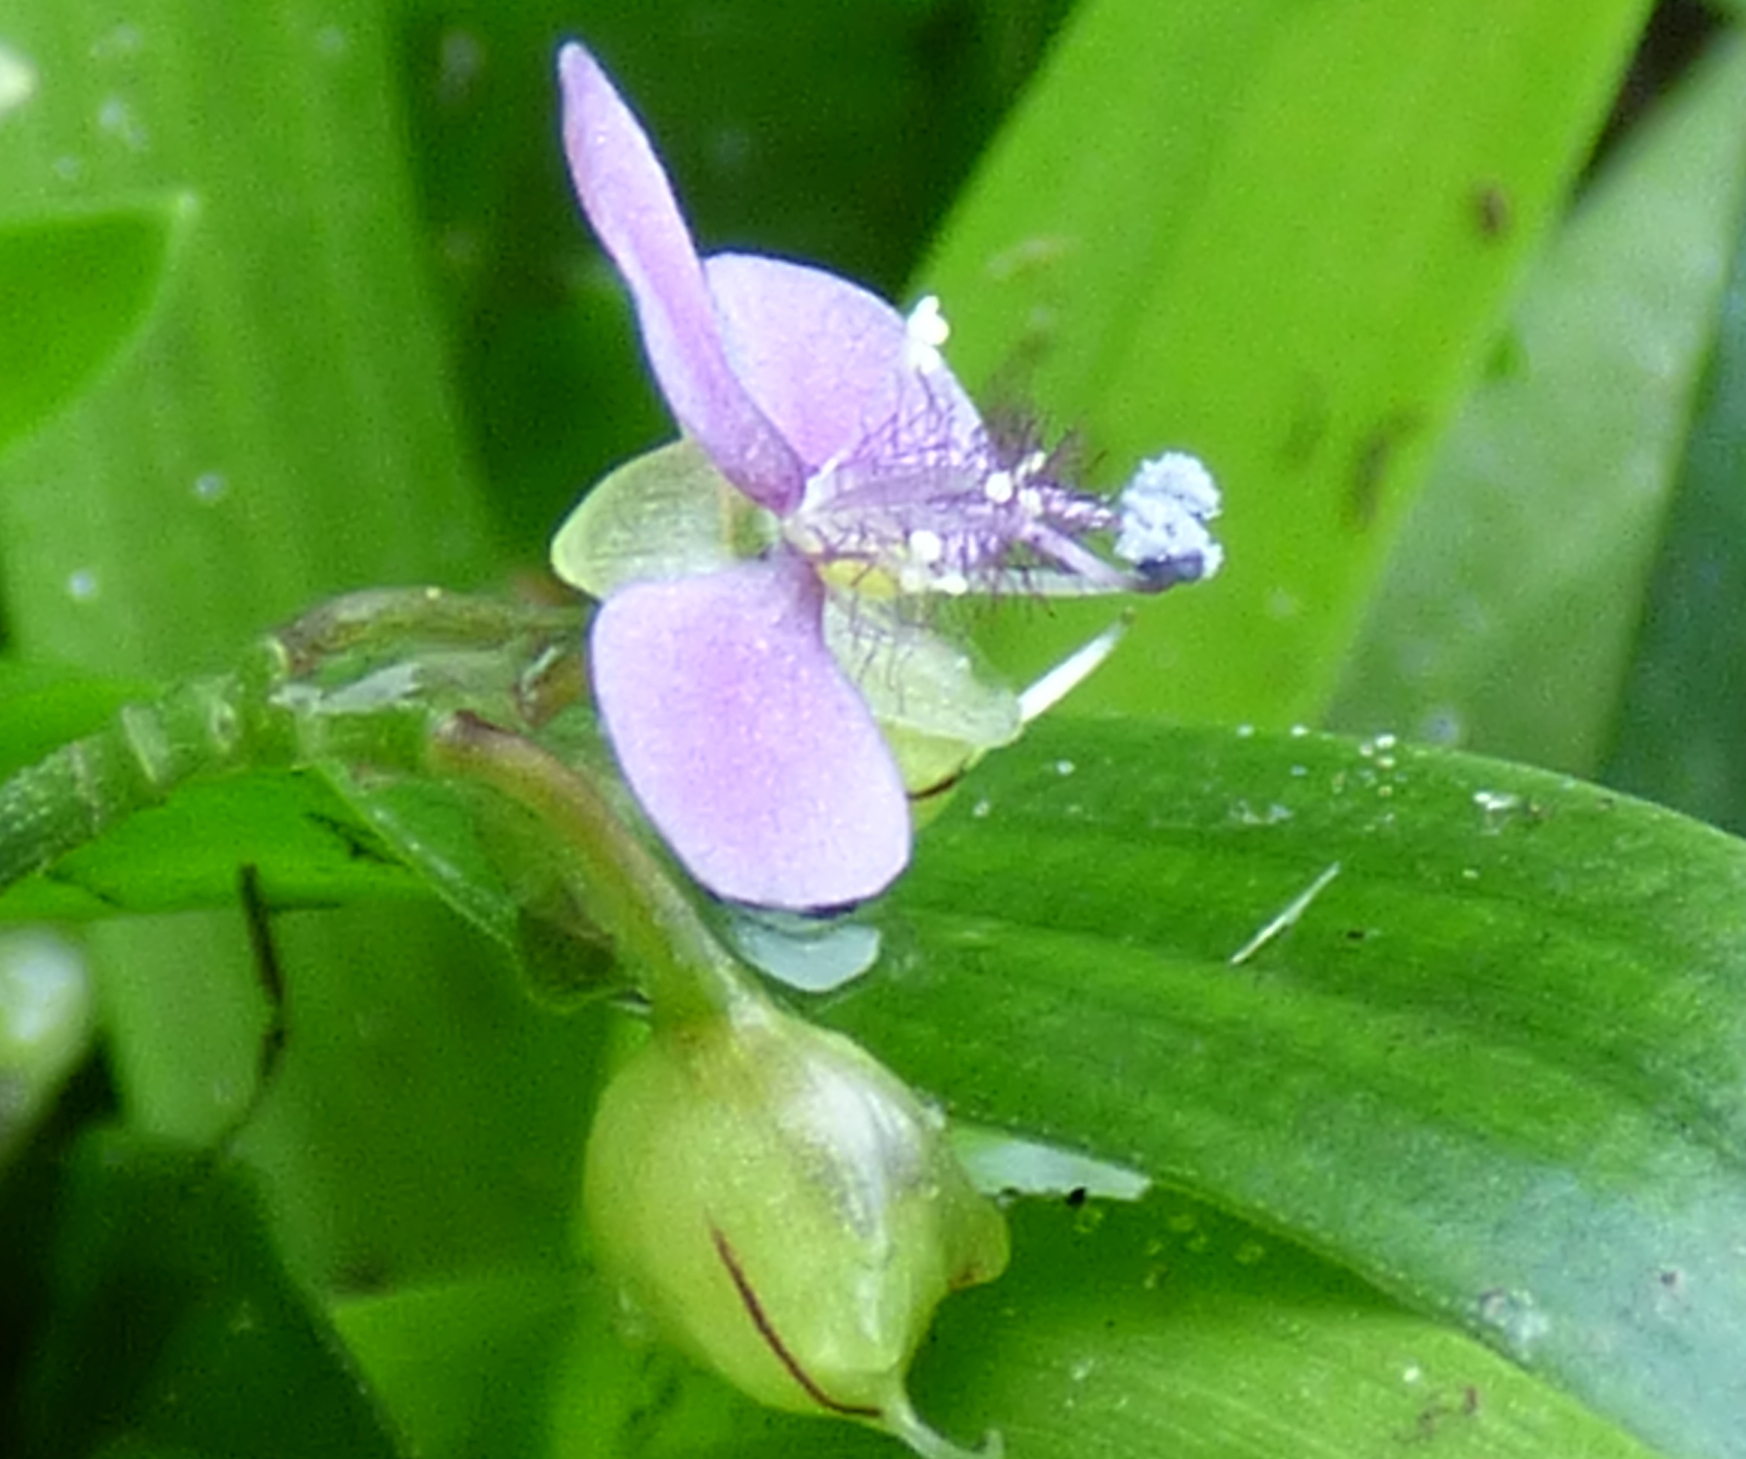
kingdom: Plantae
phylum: Tracheophyta
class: Liliopsida
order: Commelinales
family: Commelinaceae
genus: Murdannia
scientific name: Murdannia nudiflora
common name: Nakedstem dewflower
